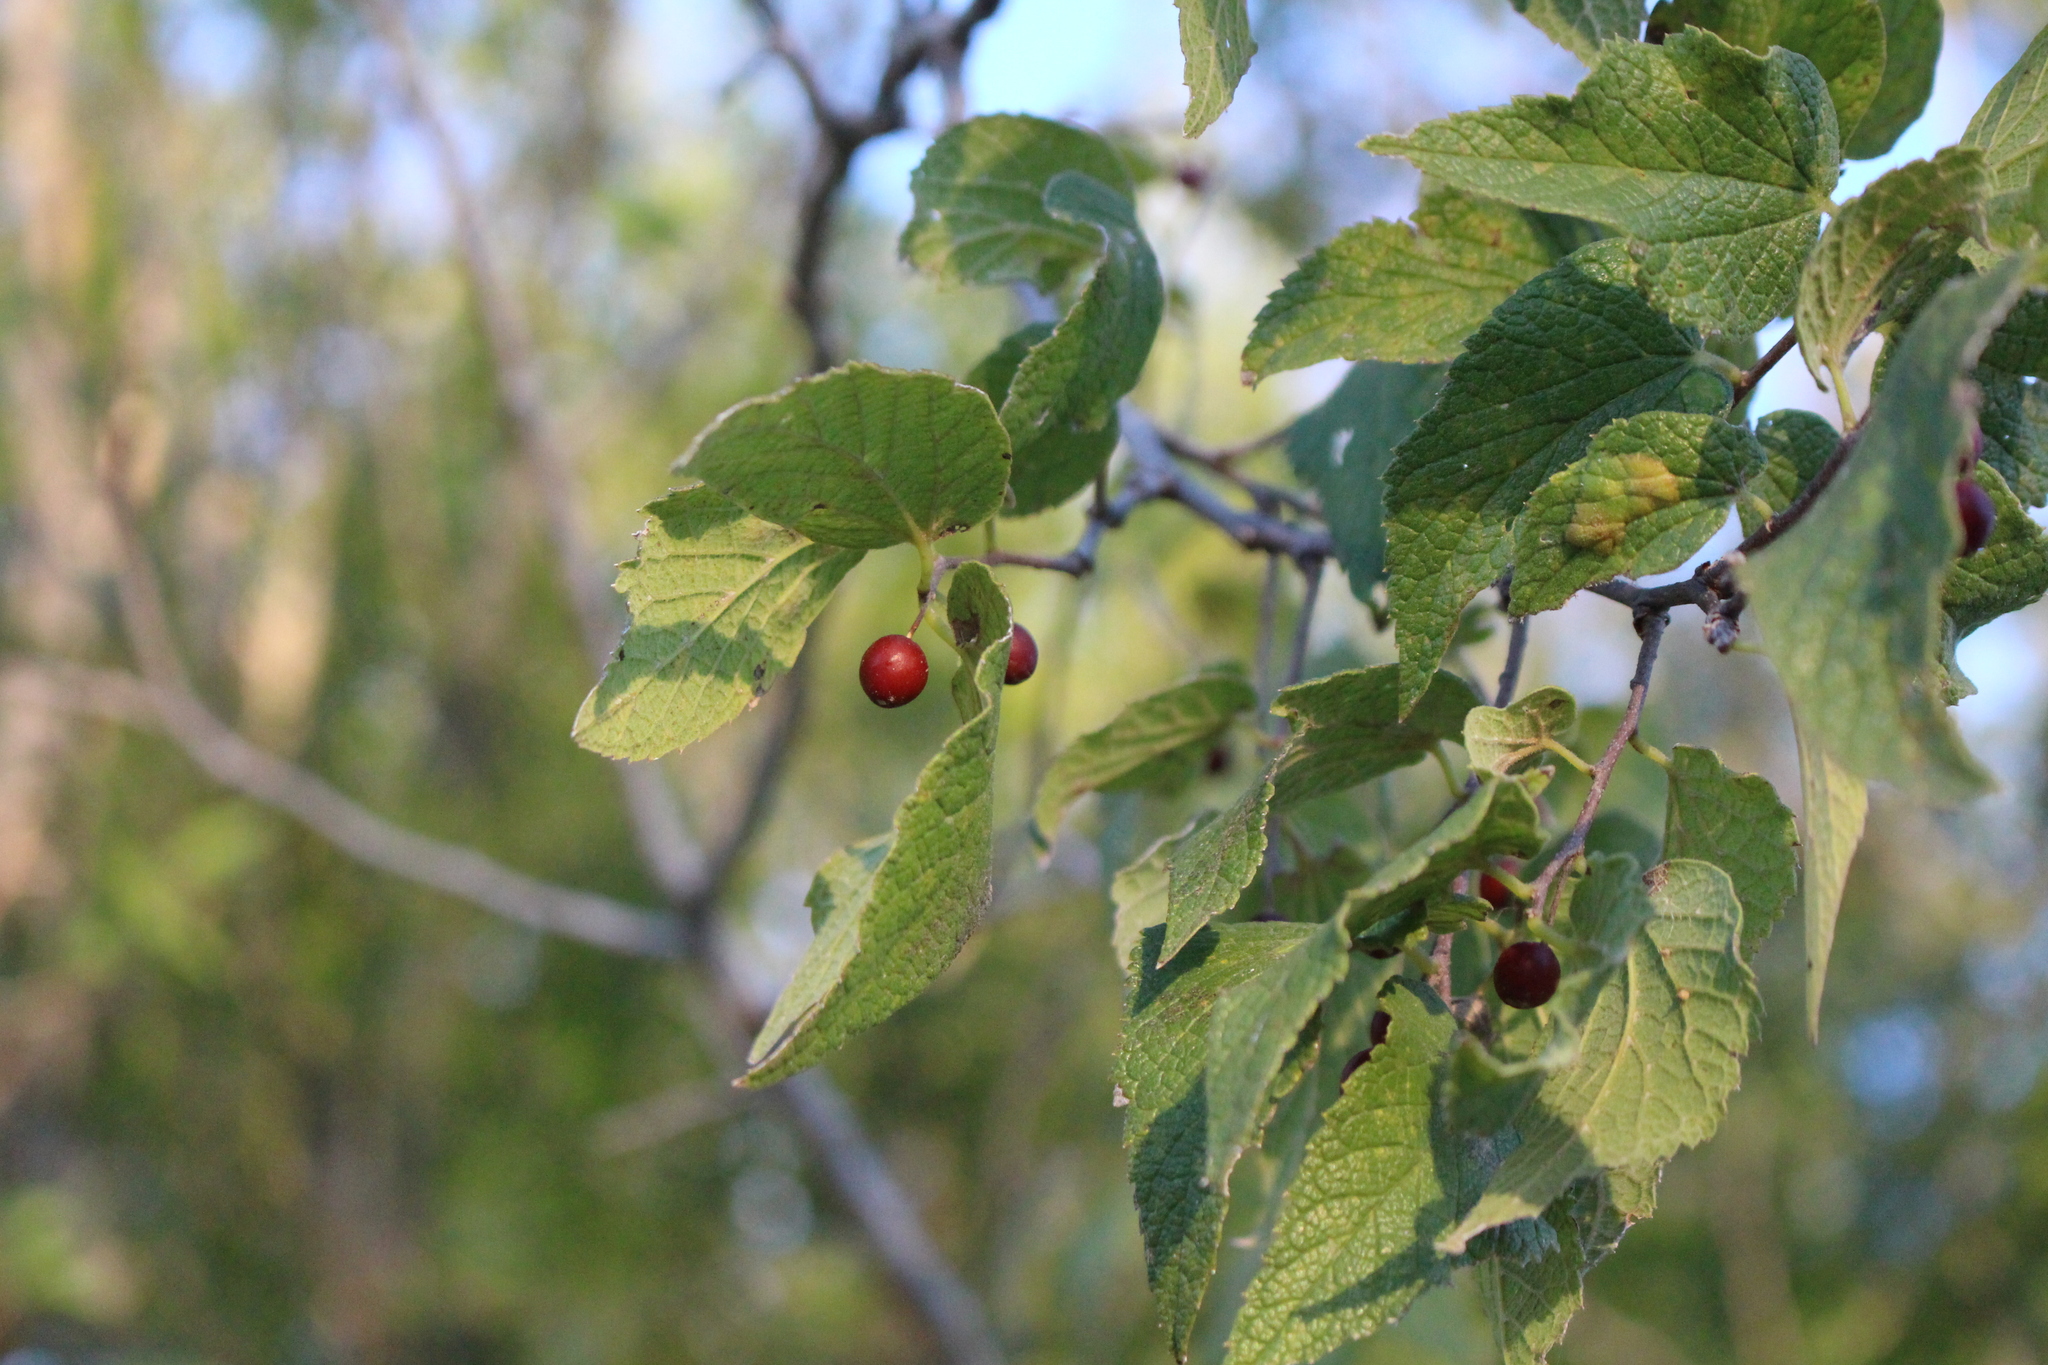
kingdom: Plantae
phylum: Tracheophyta
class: Magnoliopsida
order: Rosales
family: Cannabaceae
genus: Celtis
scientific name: Celtis laevigata
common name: Sugarberry
